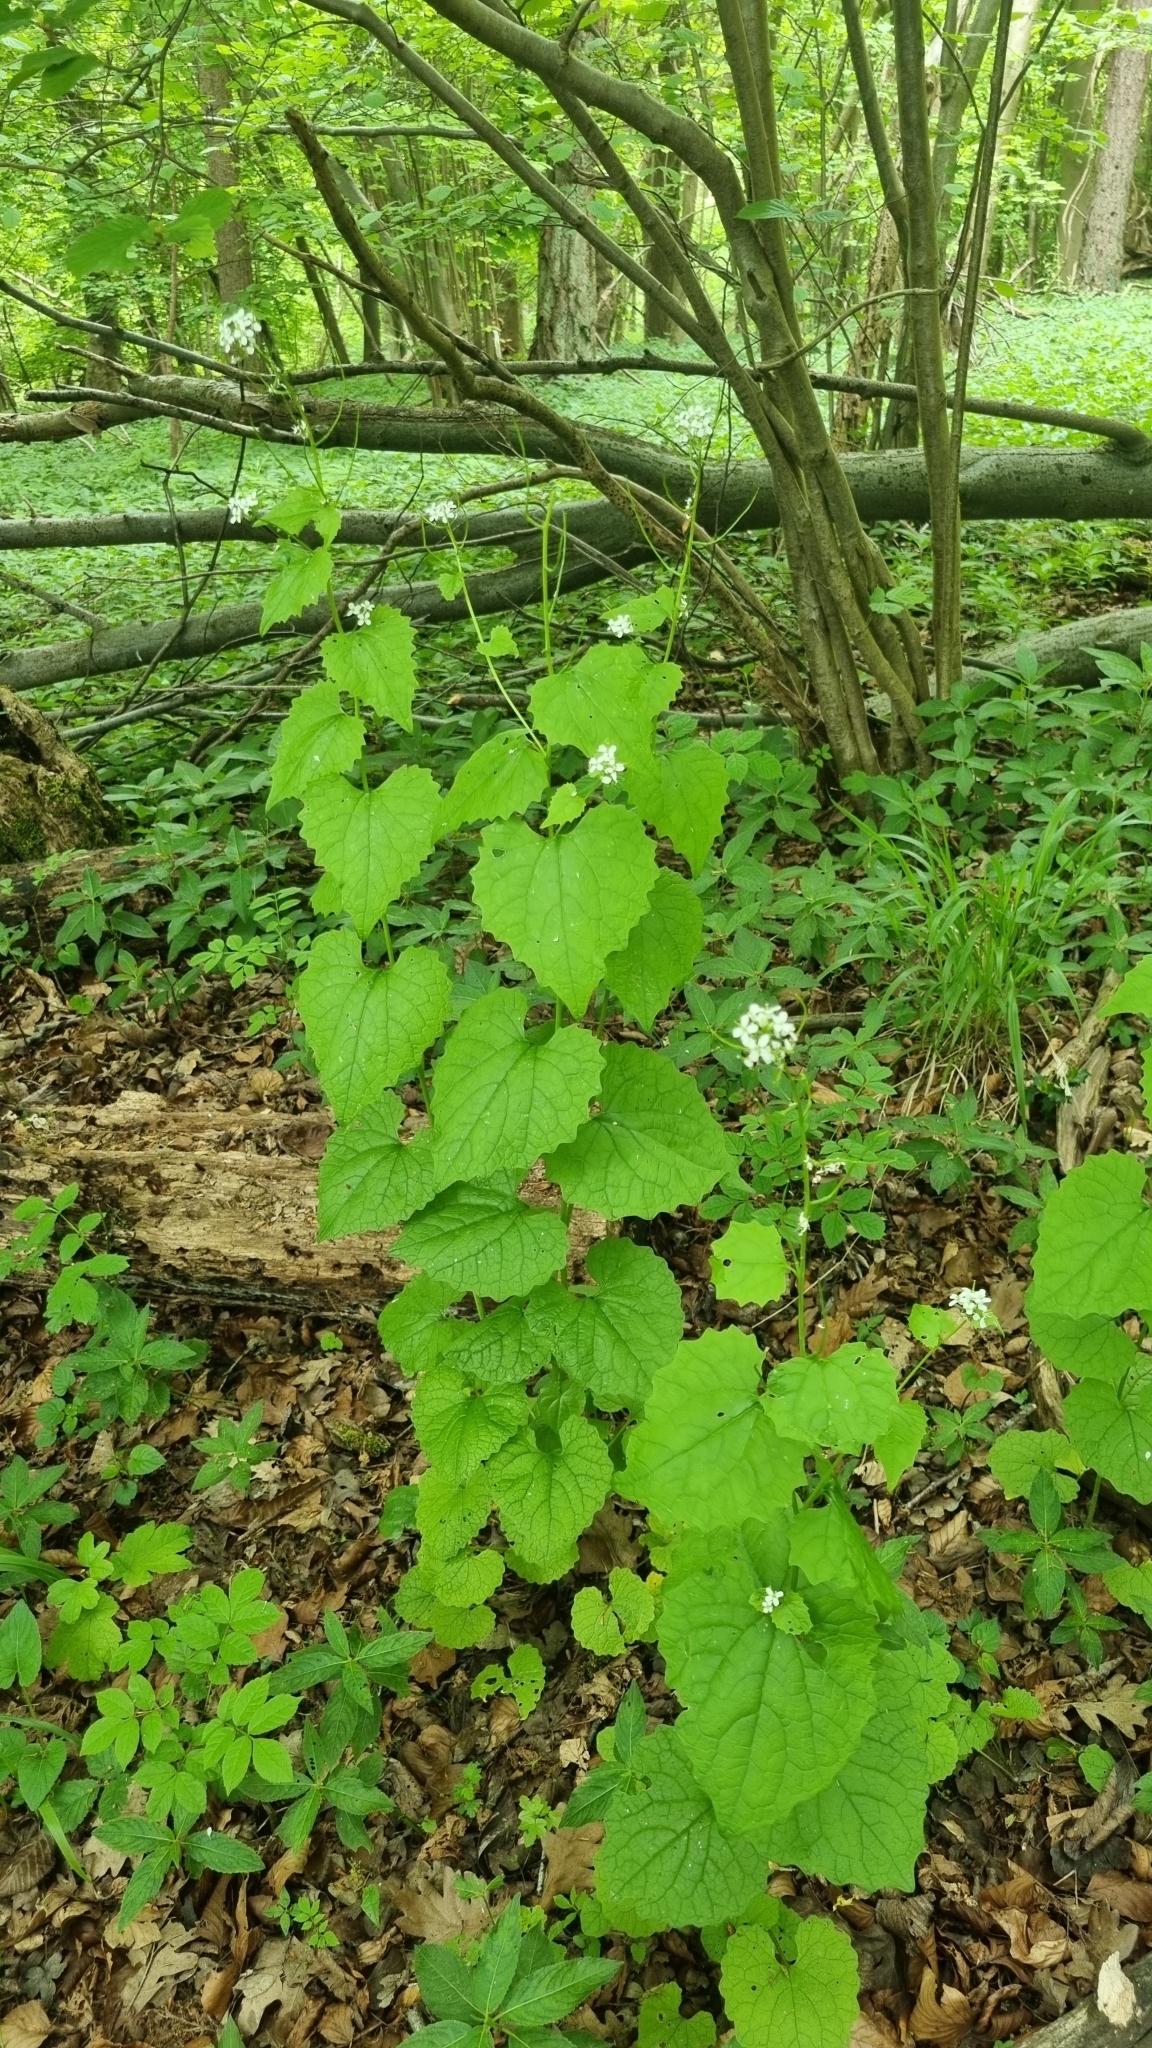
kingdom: Plantae
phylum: Tracheophyta
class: Magnoliopsida
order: Brassicales
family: Brassicaceae
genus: Alliaria
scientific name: Alliaria petiolata
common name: Garlic mustard
